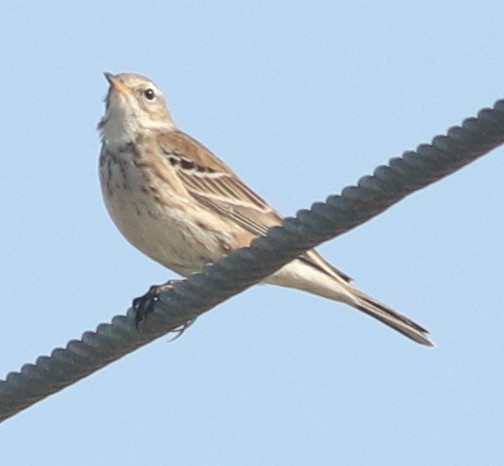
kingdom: Animalia
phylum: Chordata
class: Aves
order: Passeriformes
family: Motacillidae
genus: Anthus
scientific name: Anthus spinoletta
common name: Water pipit
